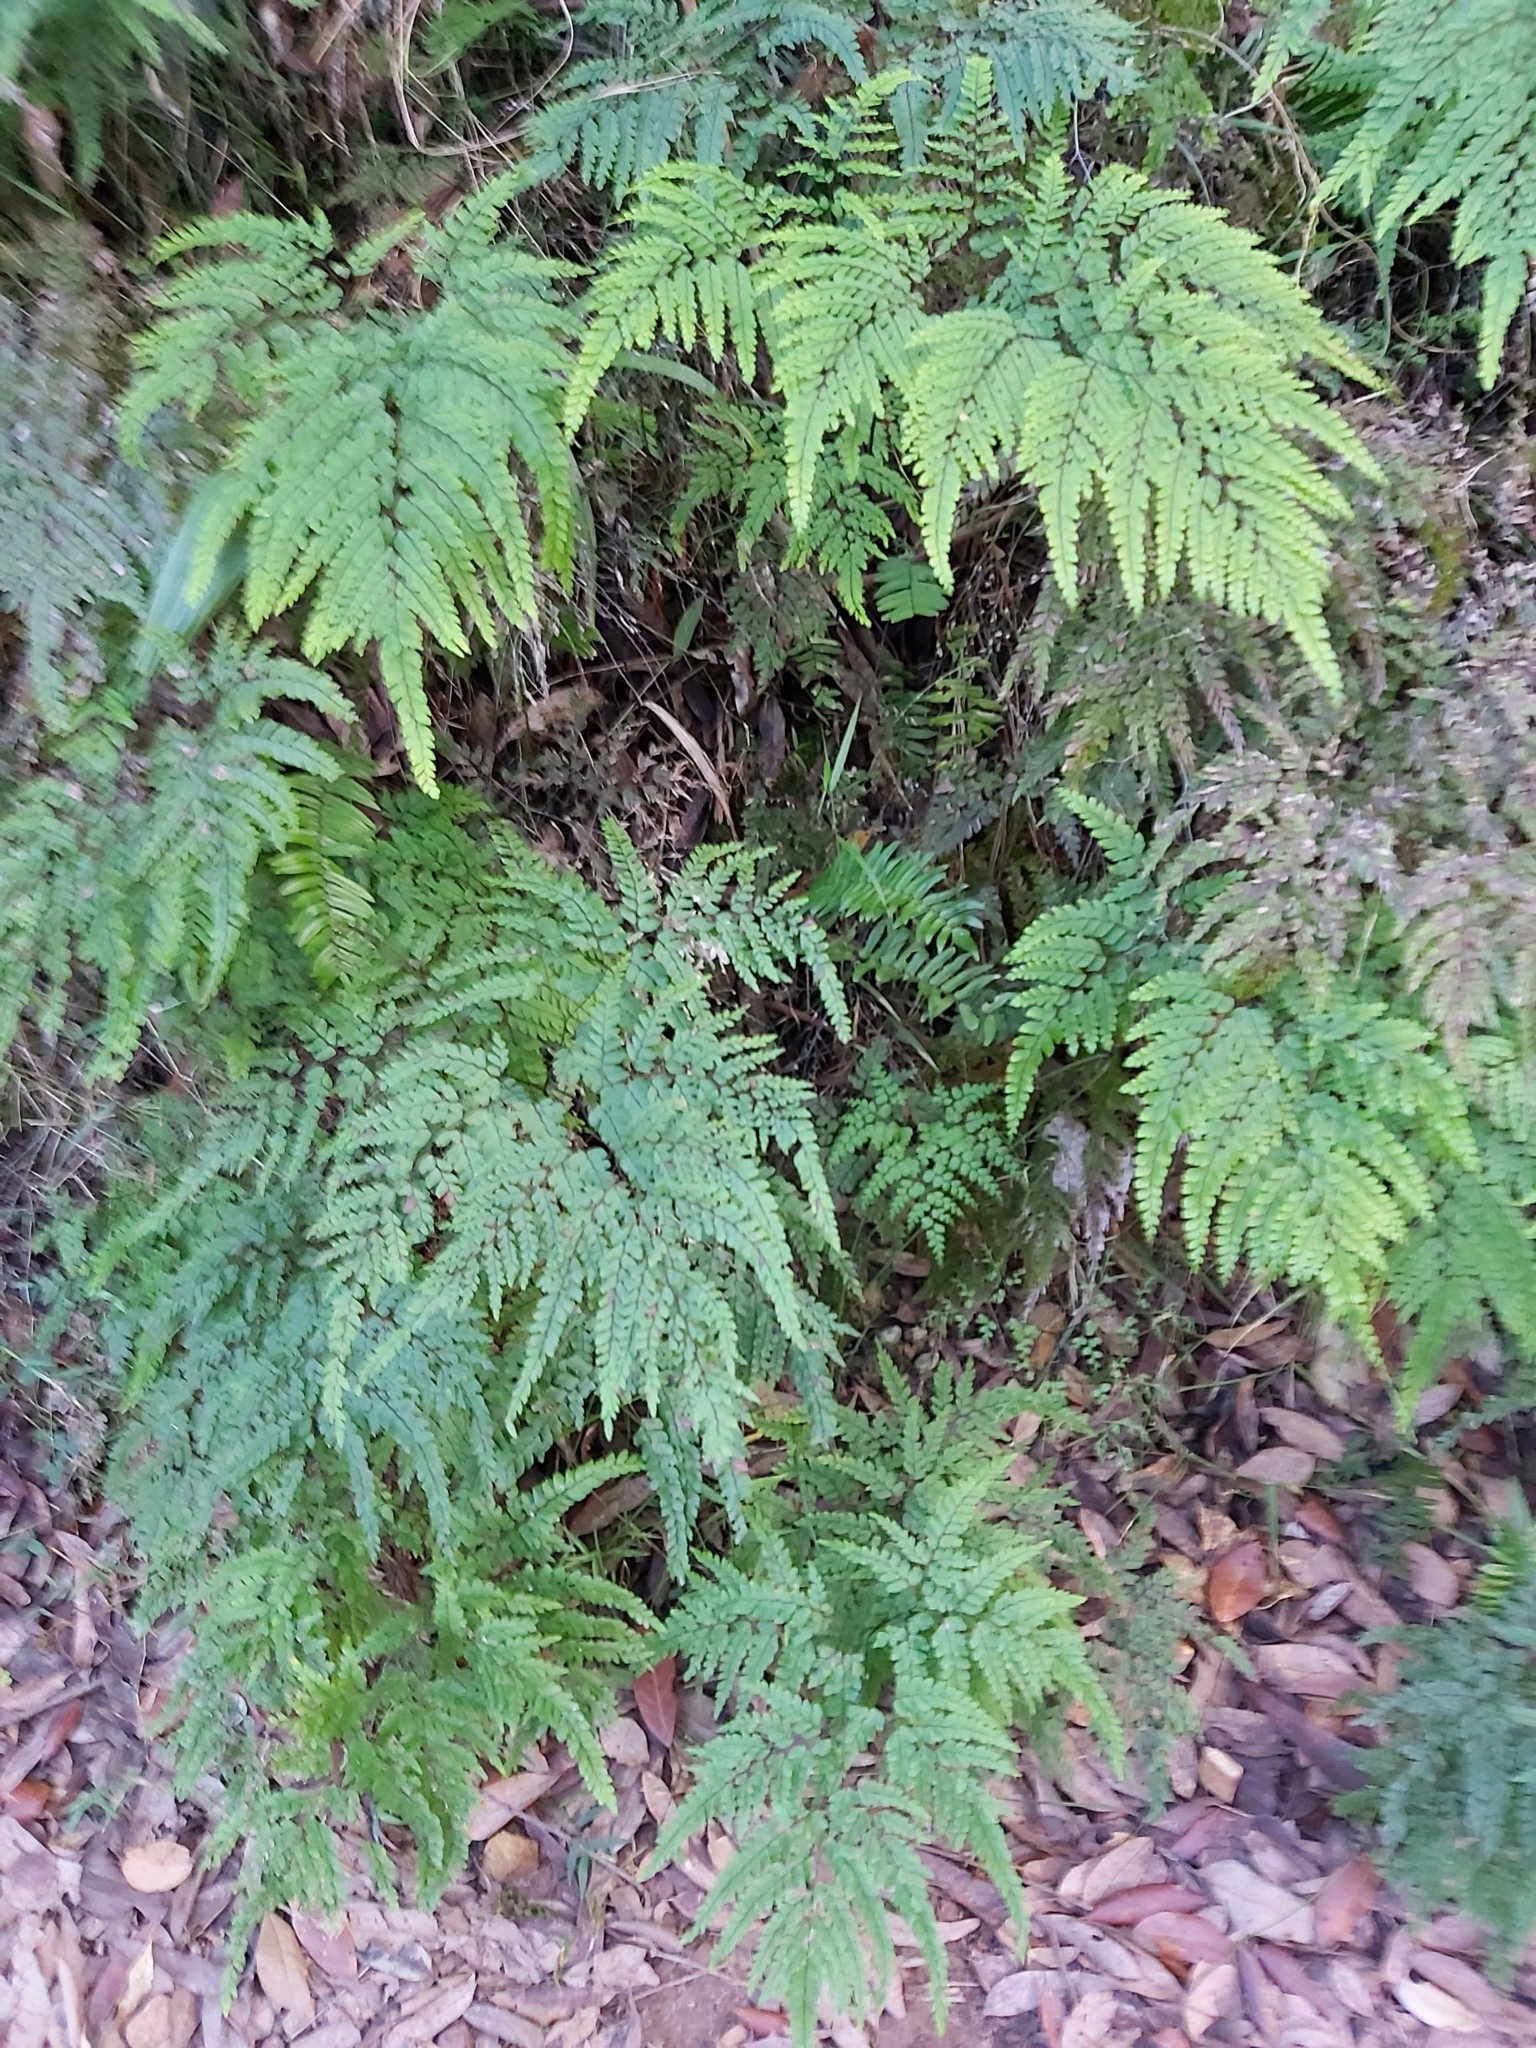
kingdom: Plantae
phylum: Tracheophyta
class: Polypodiopsida
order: Polypodiales
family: Pteridaceae
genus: Adiantum
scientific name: Adiantum formosum
